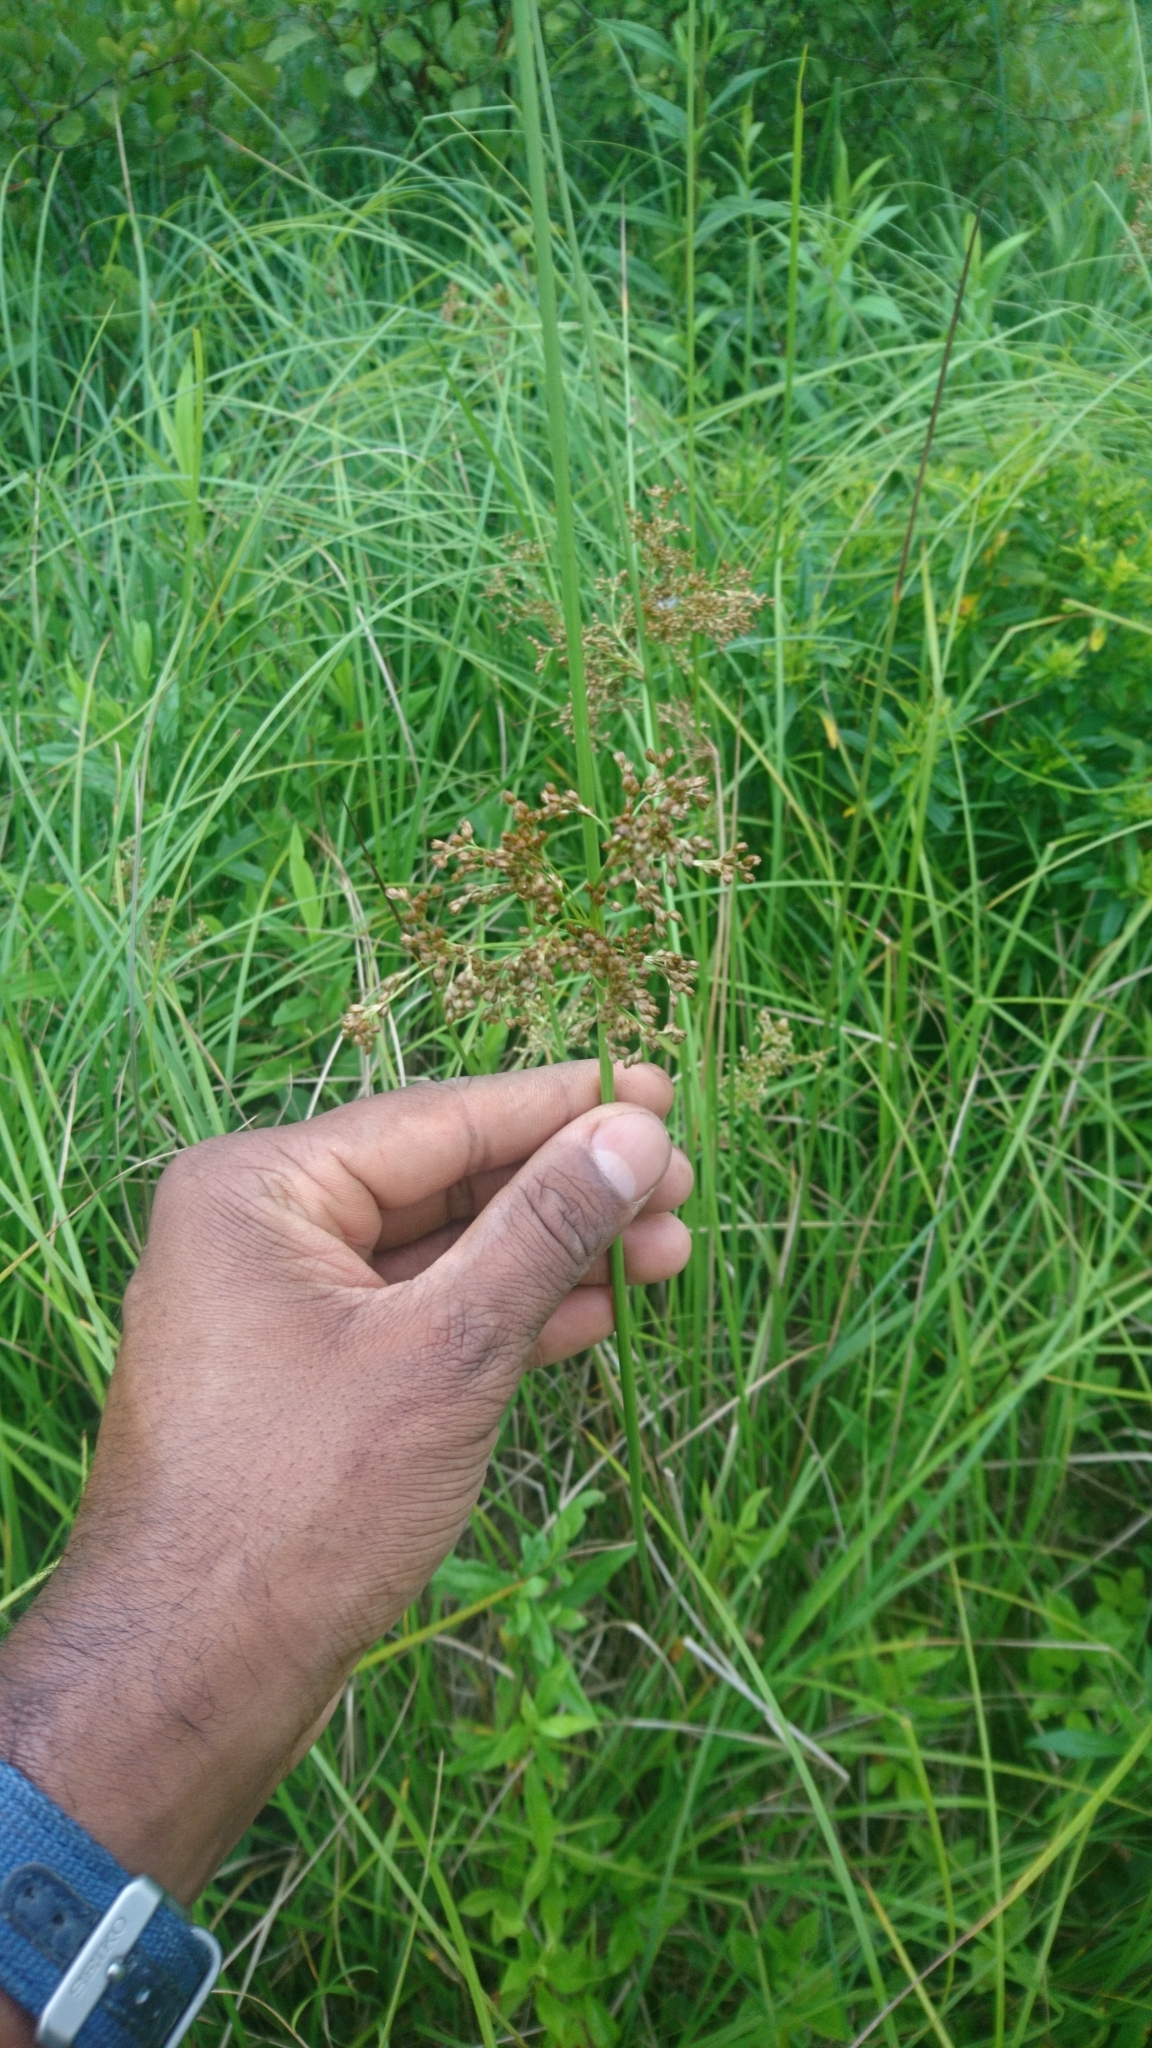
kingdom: Plantae
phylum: Tracheophyta
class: Liliopsida
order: Poales
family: Juncaceae
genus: Juncus
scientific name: Juncus effusus
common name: Soft rush
